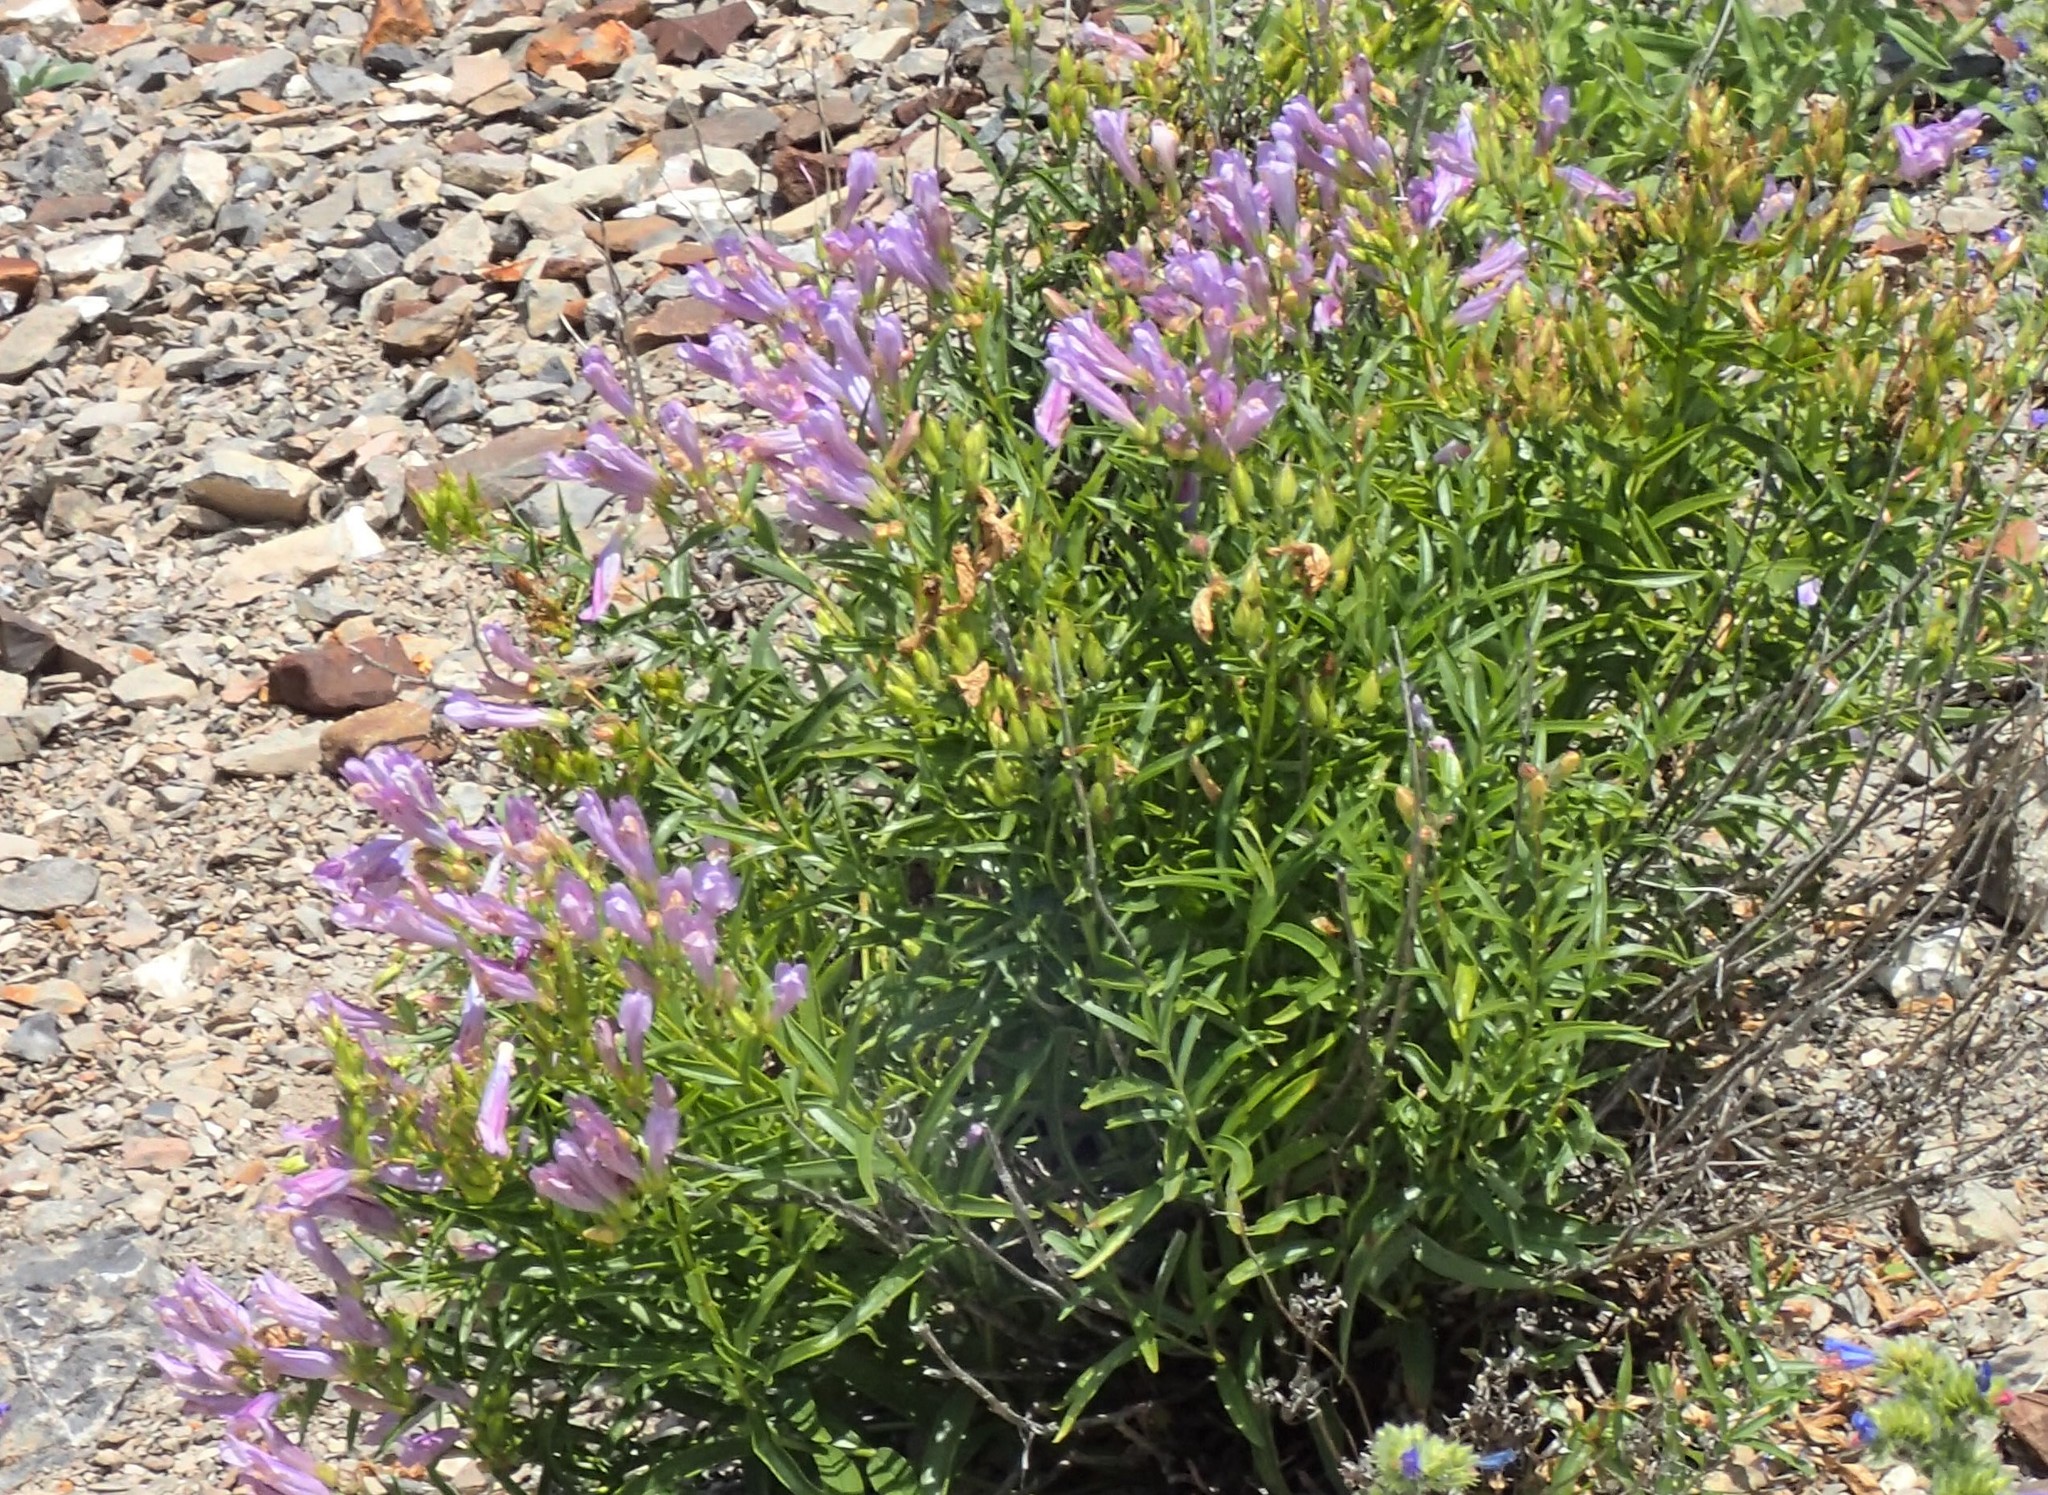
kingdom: Plantae
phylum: Tracheophyta
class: Magnoliopsida
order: Lamiales
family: Plantaginaceae
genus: Penstemon
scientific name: Penstemon lyalli
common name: Lyall's beardtongue
